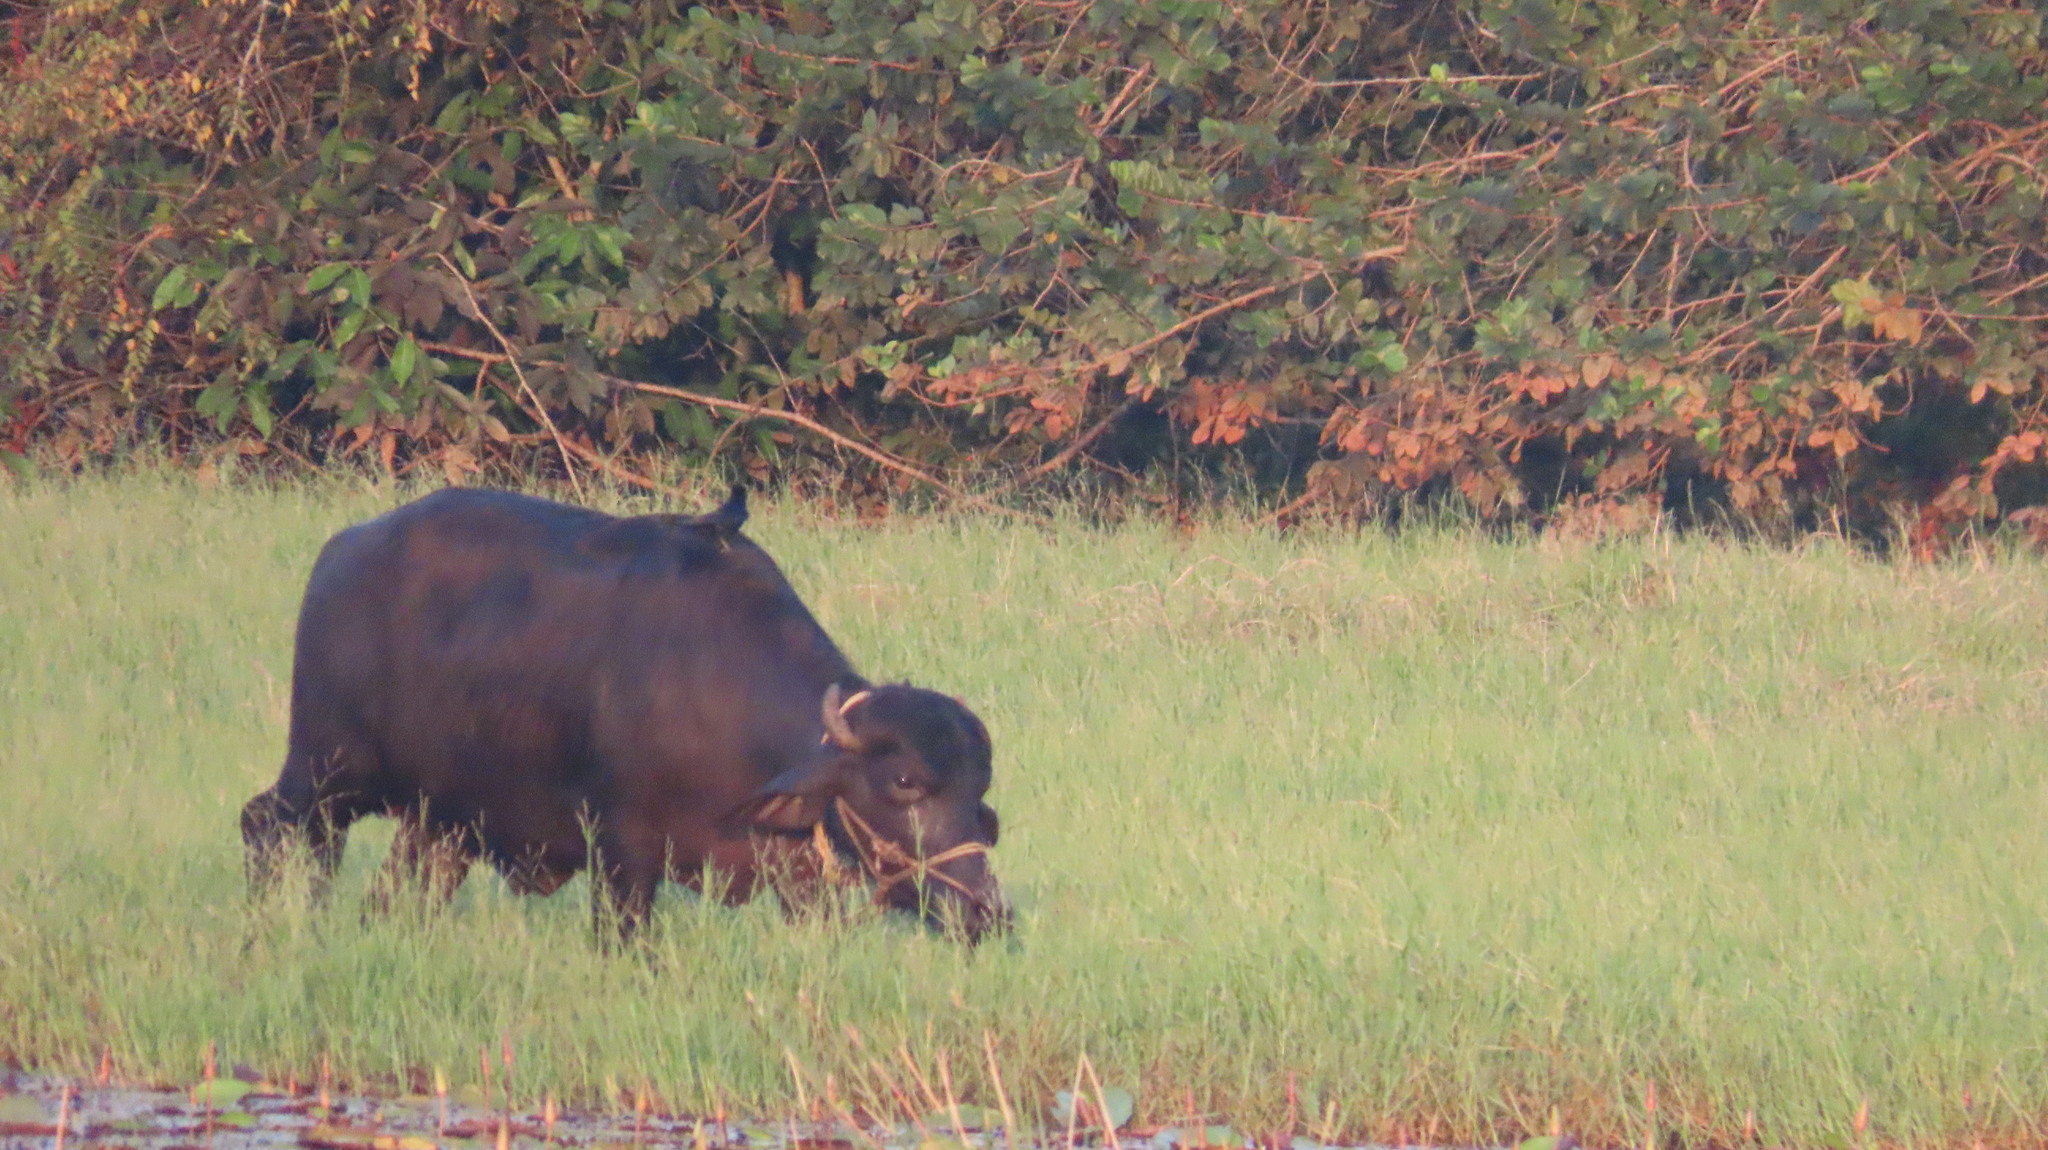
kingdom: Animalia
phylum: Chordata
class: Aves
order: Passeriformes
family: Dicruridae
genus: Dicrurus
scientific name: Dicrurus macrocercus
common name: Black drongo
